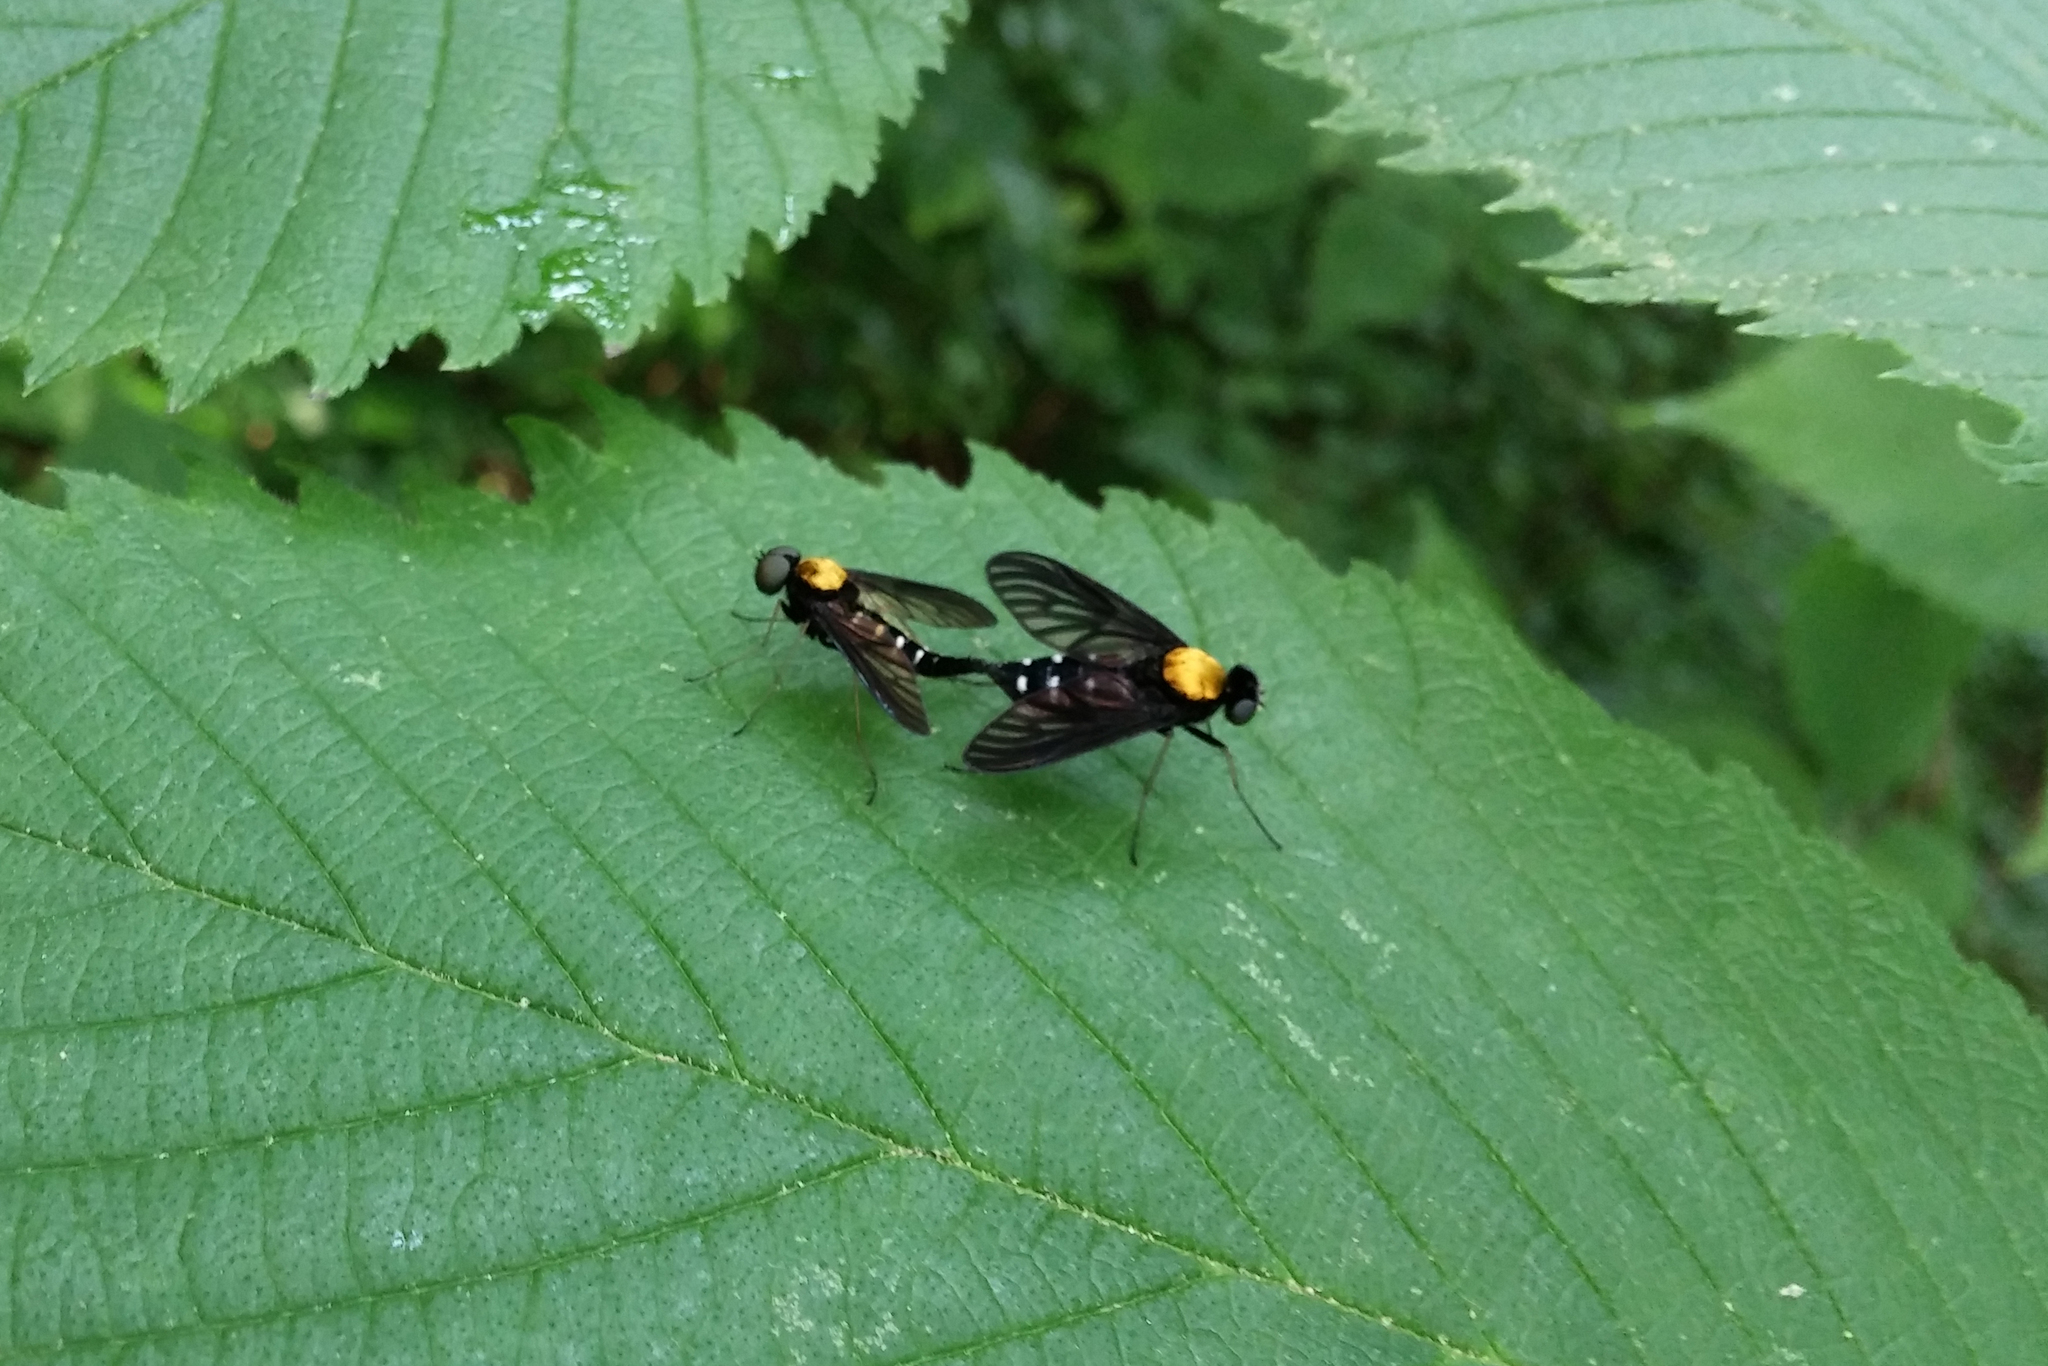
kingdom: Animalia
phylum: Arthropoda
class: Insecta
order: Diptera
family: Rhagionidae
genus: Chrysopilus
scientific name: Chrysopilus thoracicus
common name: Golden-backed snipe fly
